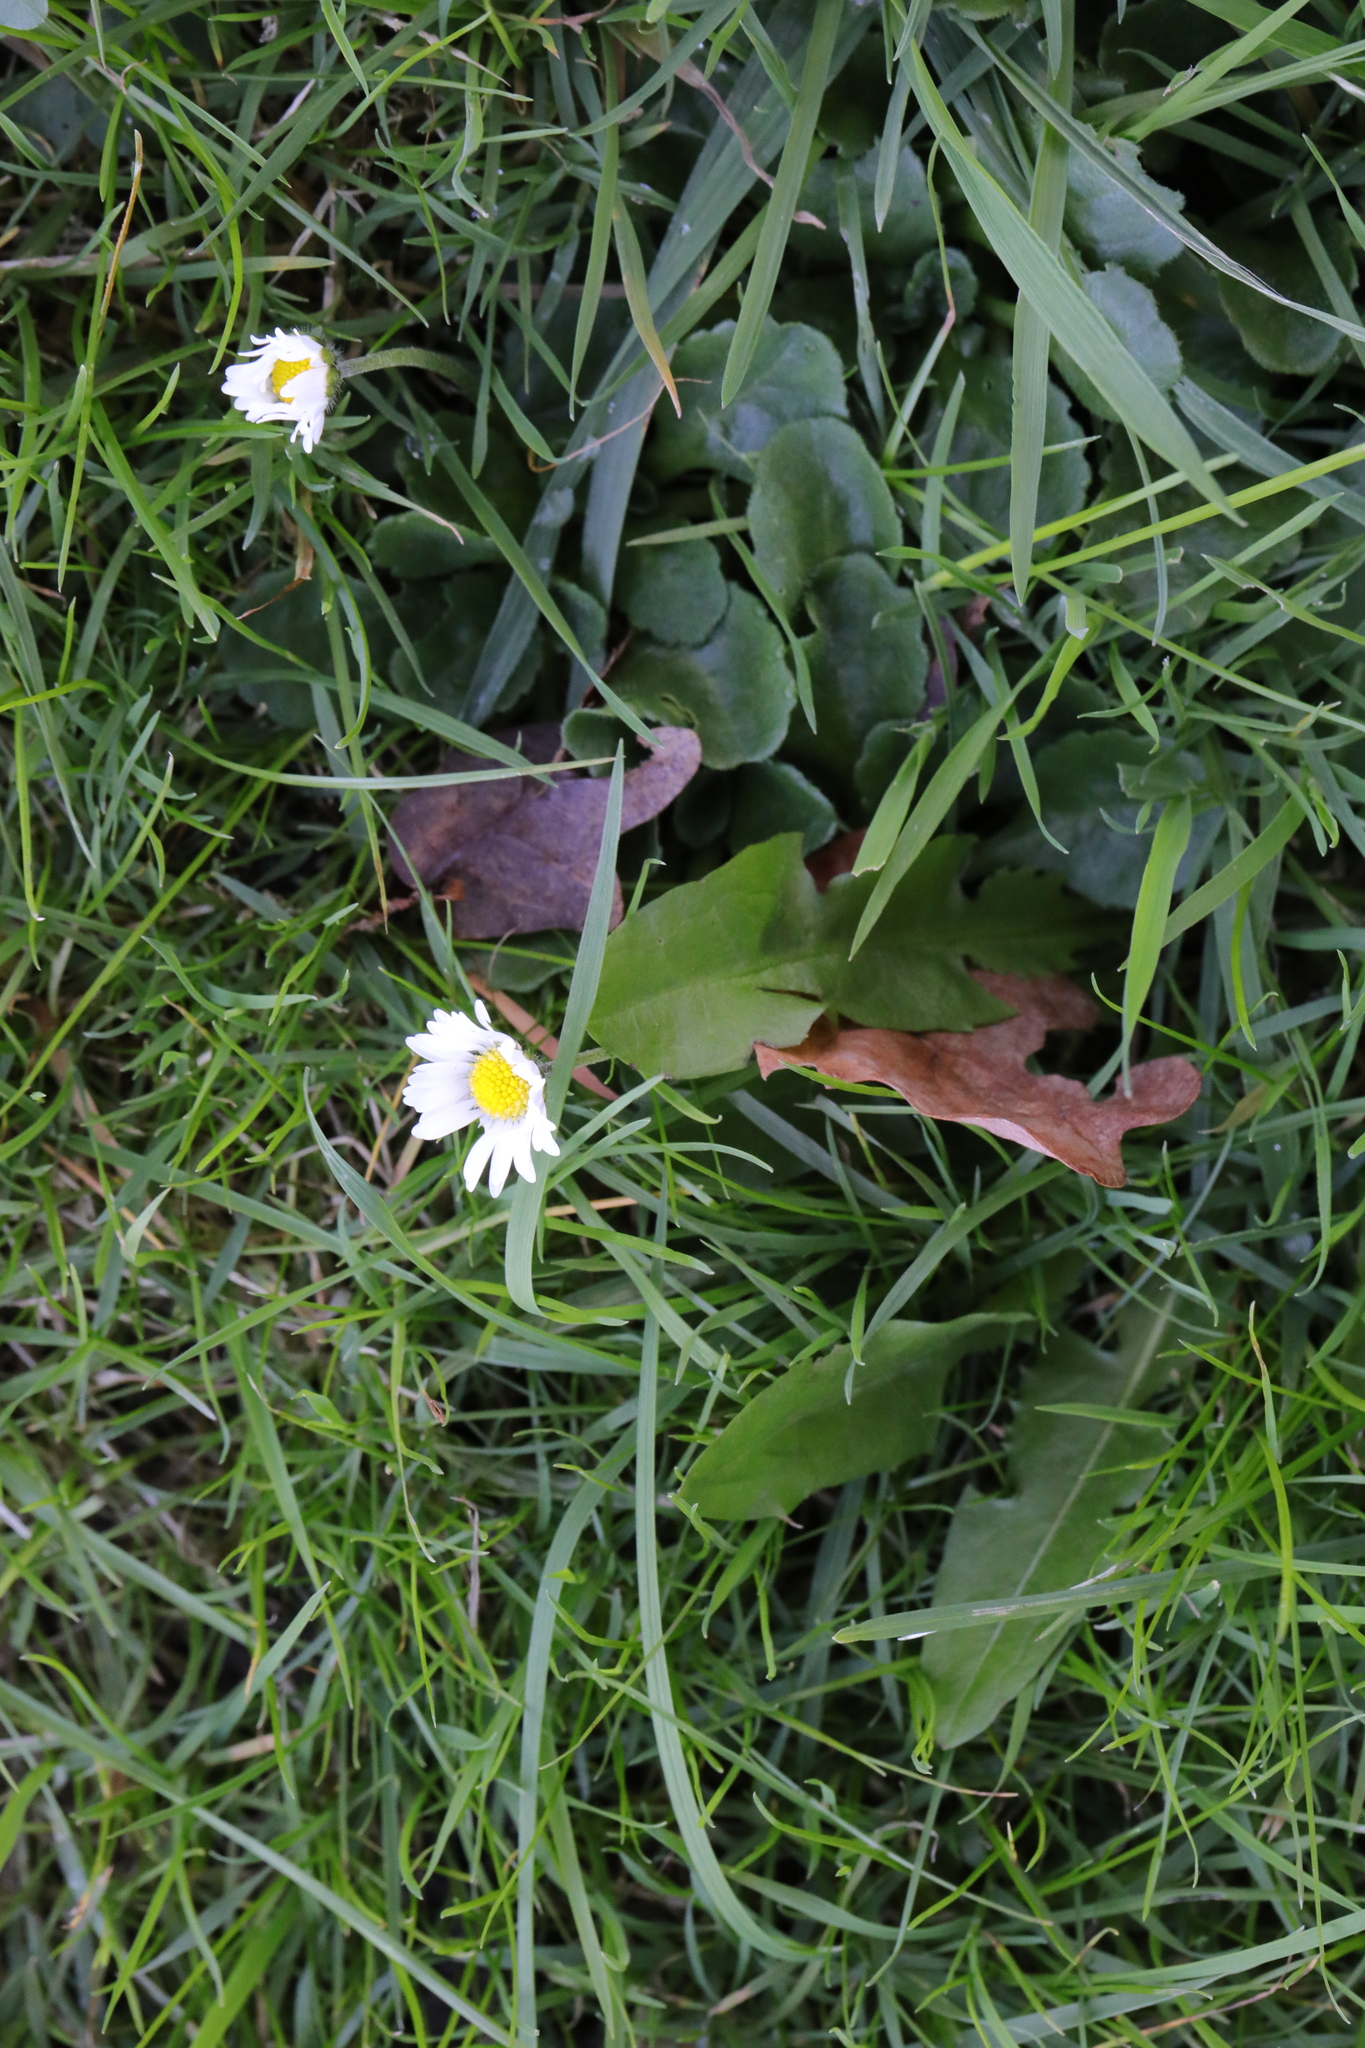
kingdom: Plantae
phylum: Tracheophyta
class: Magnoliopsida
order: Asterales
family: Asteraceae
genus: Bellis
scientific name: Bellis perennis
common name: Lawndaisy
